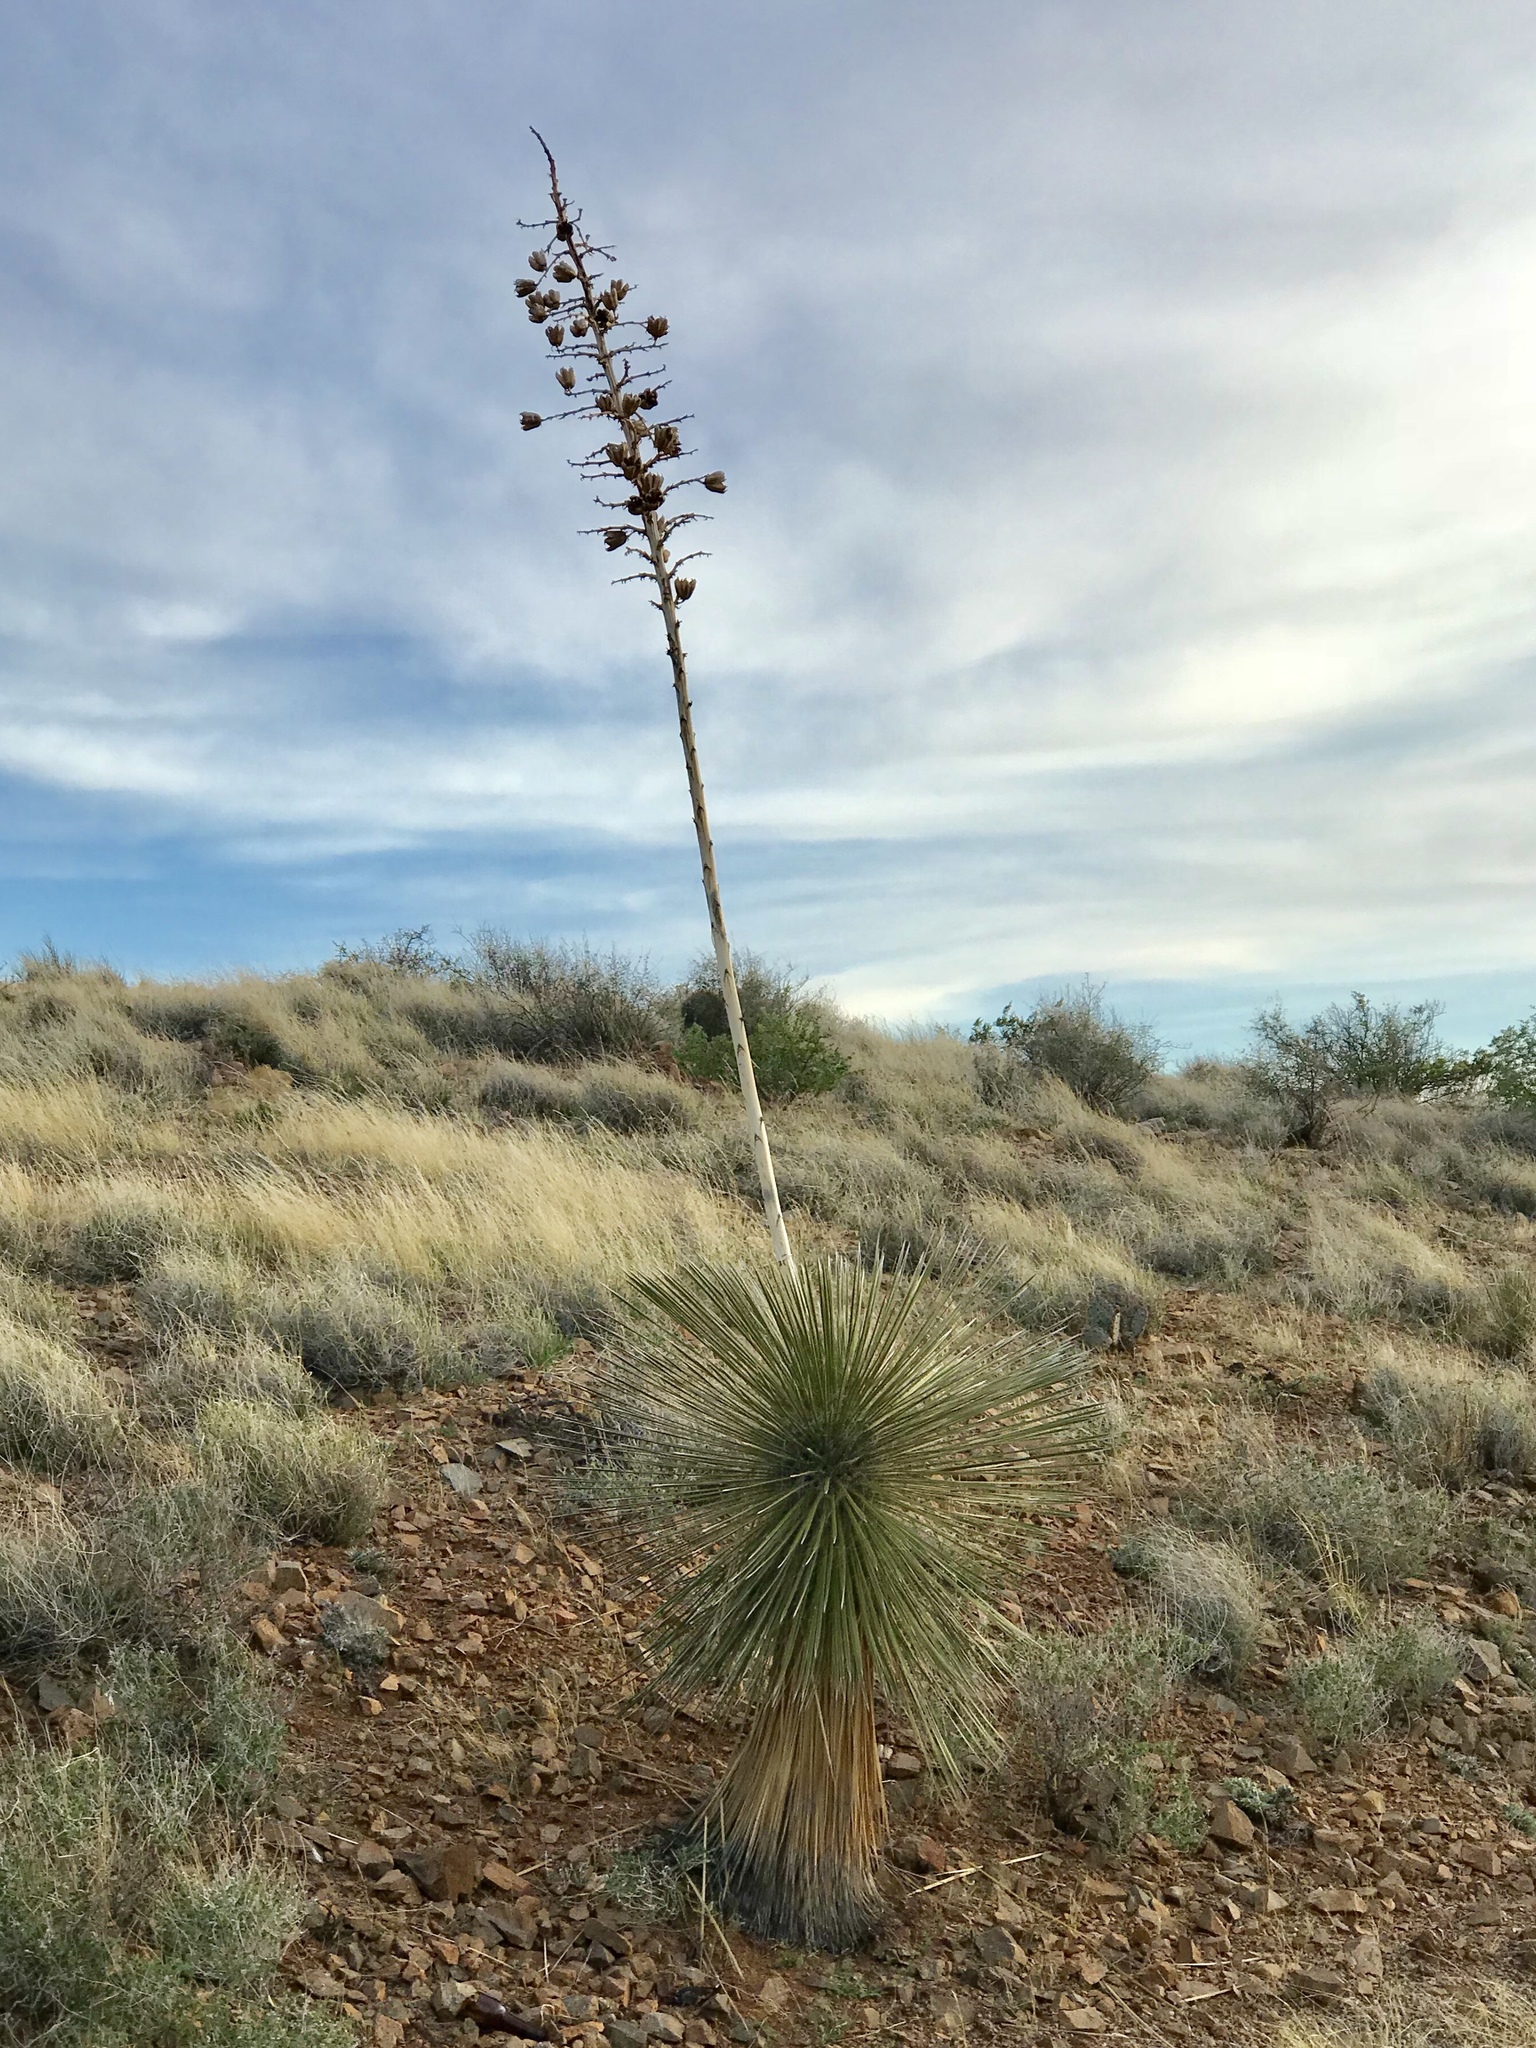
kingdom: Plantae
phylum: Tracheophyta
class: Liliopsida
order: Asparagales
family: Asparagaceae
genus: Yucca
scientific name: Yucca elata
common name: Palmella
